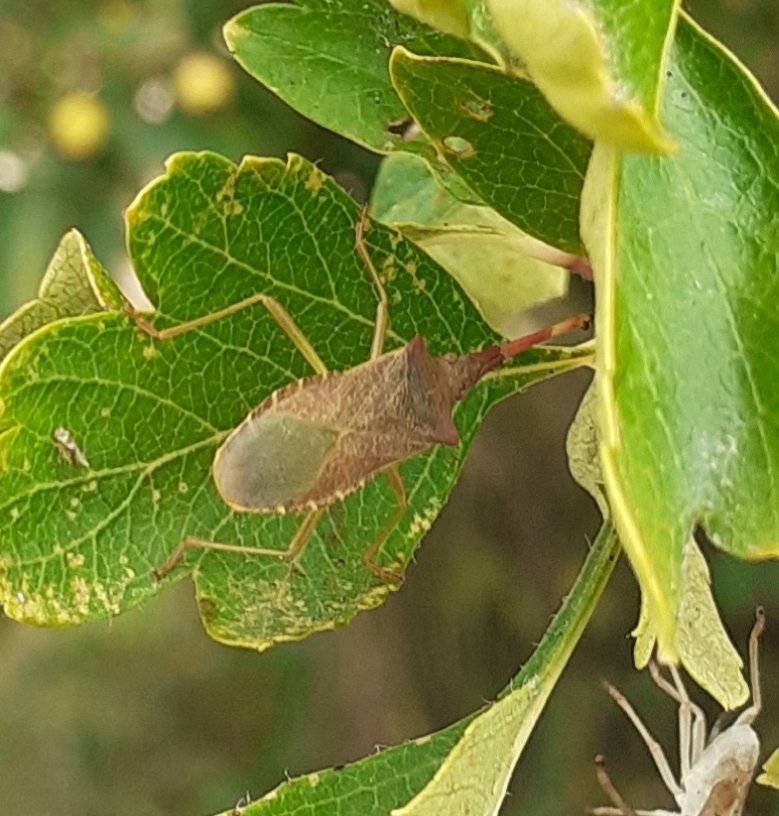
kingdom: Animalia
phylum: Arthropoda
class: Insecta
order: Hemiptera
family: Coreidae
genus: Gonocerus
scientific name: Gonocerus acuteangulatus
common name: Box bug
